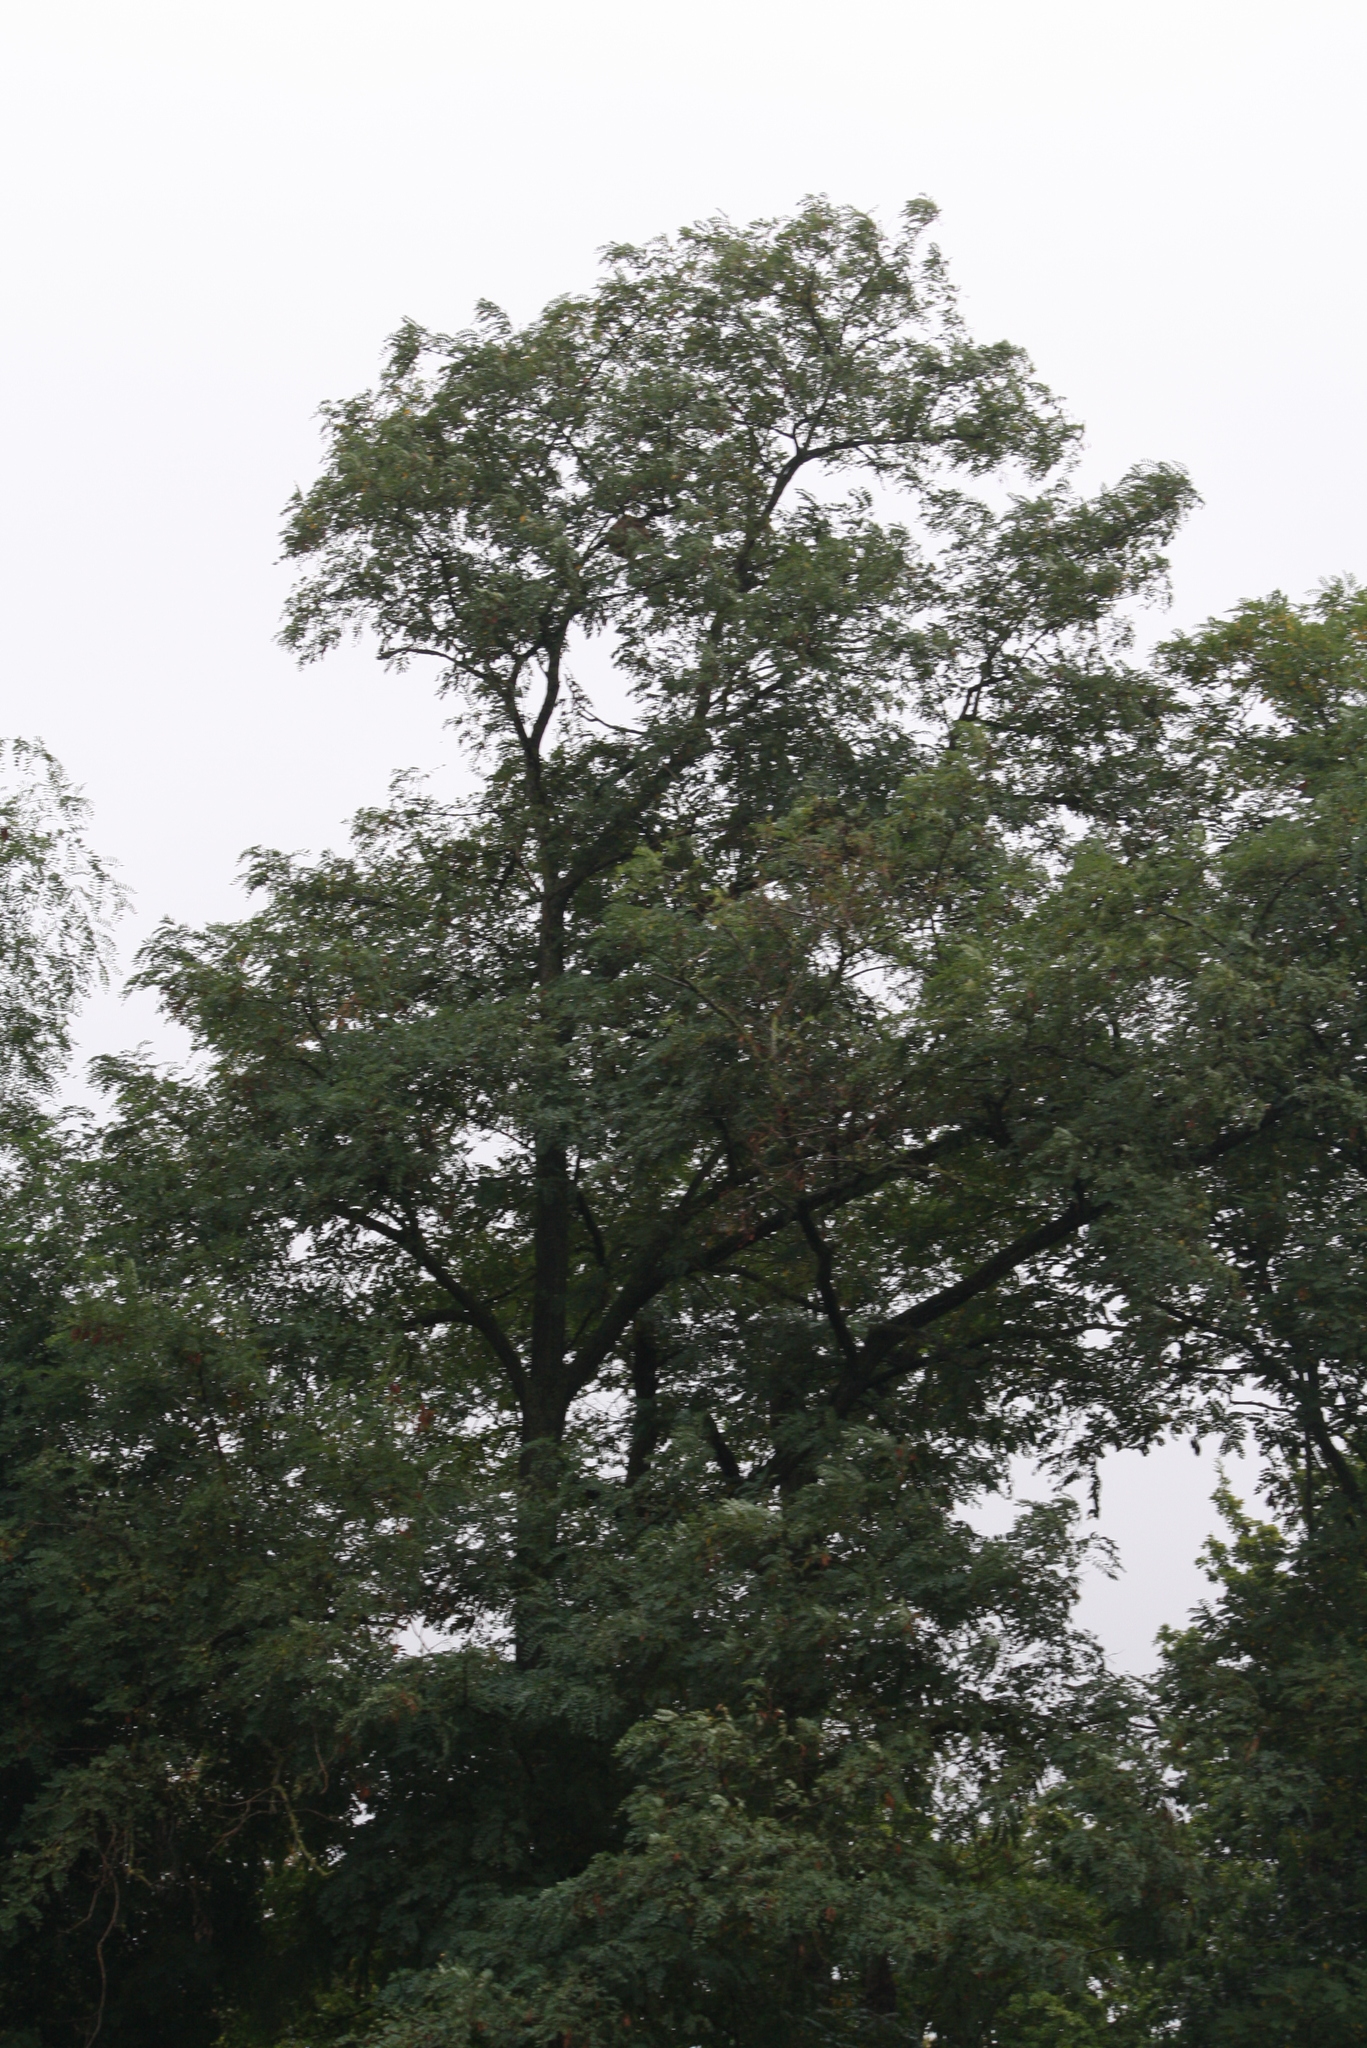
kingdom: Animalia
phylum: Arthropoda
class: Insecta
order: Hymenoptera
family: Vespidae
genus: Vespa
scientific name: Vespa velutina
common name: Asian hornet
